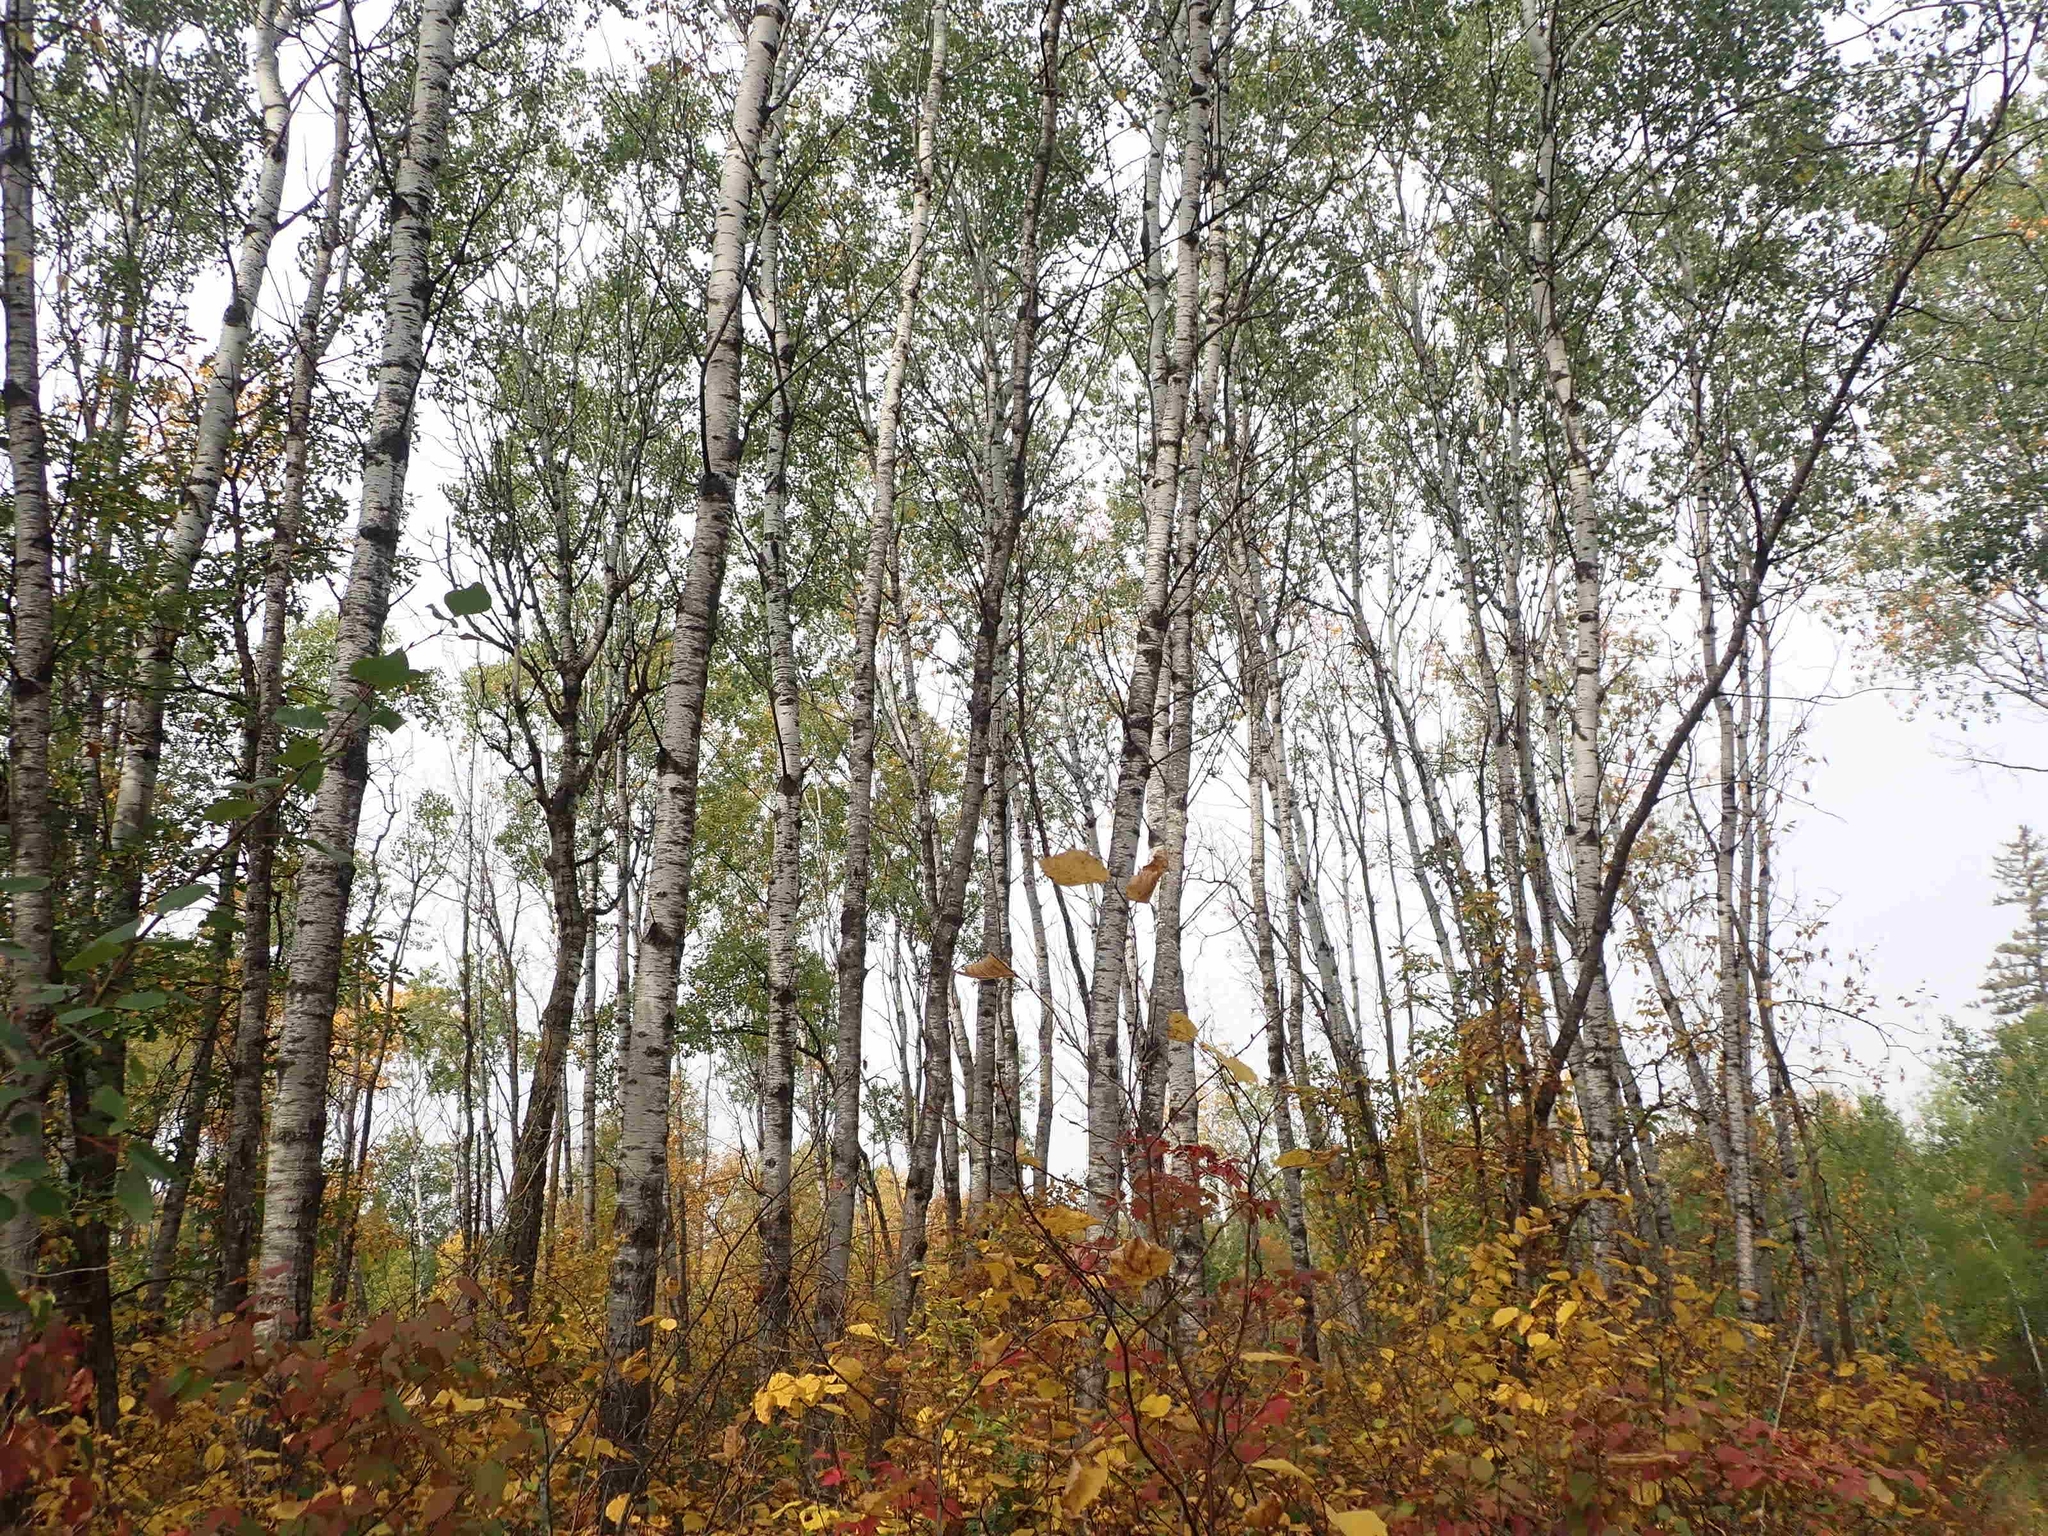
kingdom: Plantae
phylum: Tracheophyta
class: Magnoliopsida
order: Malpighiales
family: Salicaceae
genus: Populus
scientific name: Populus tremuloides
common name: Quaking aspen
